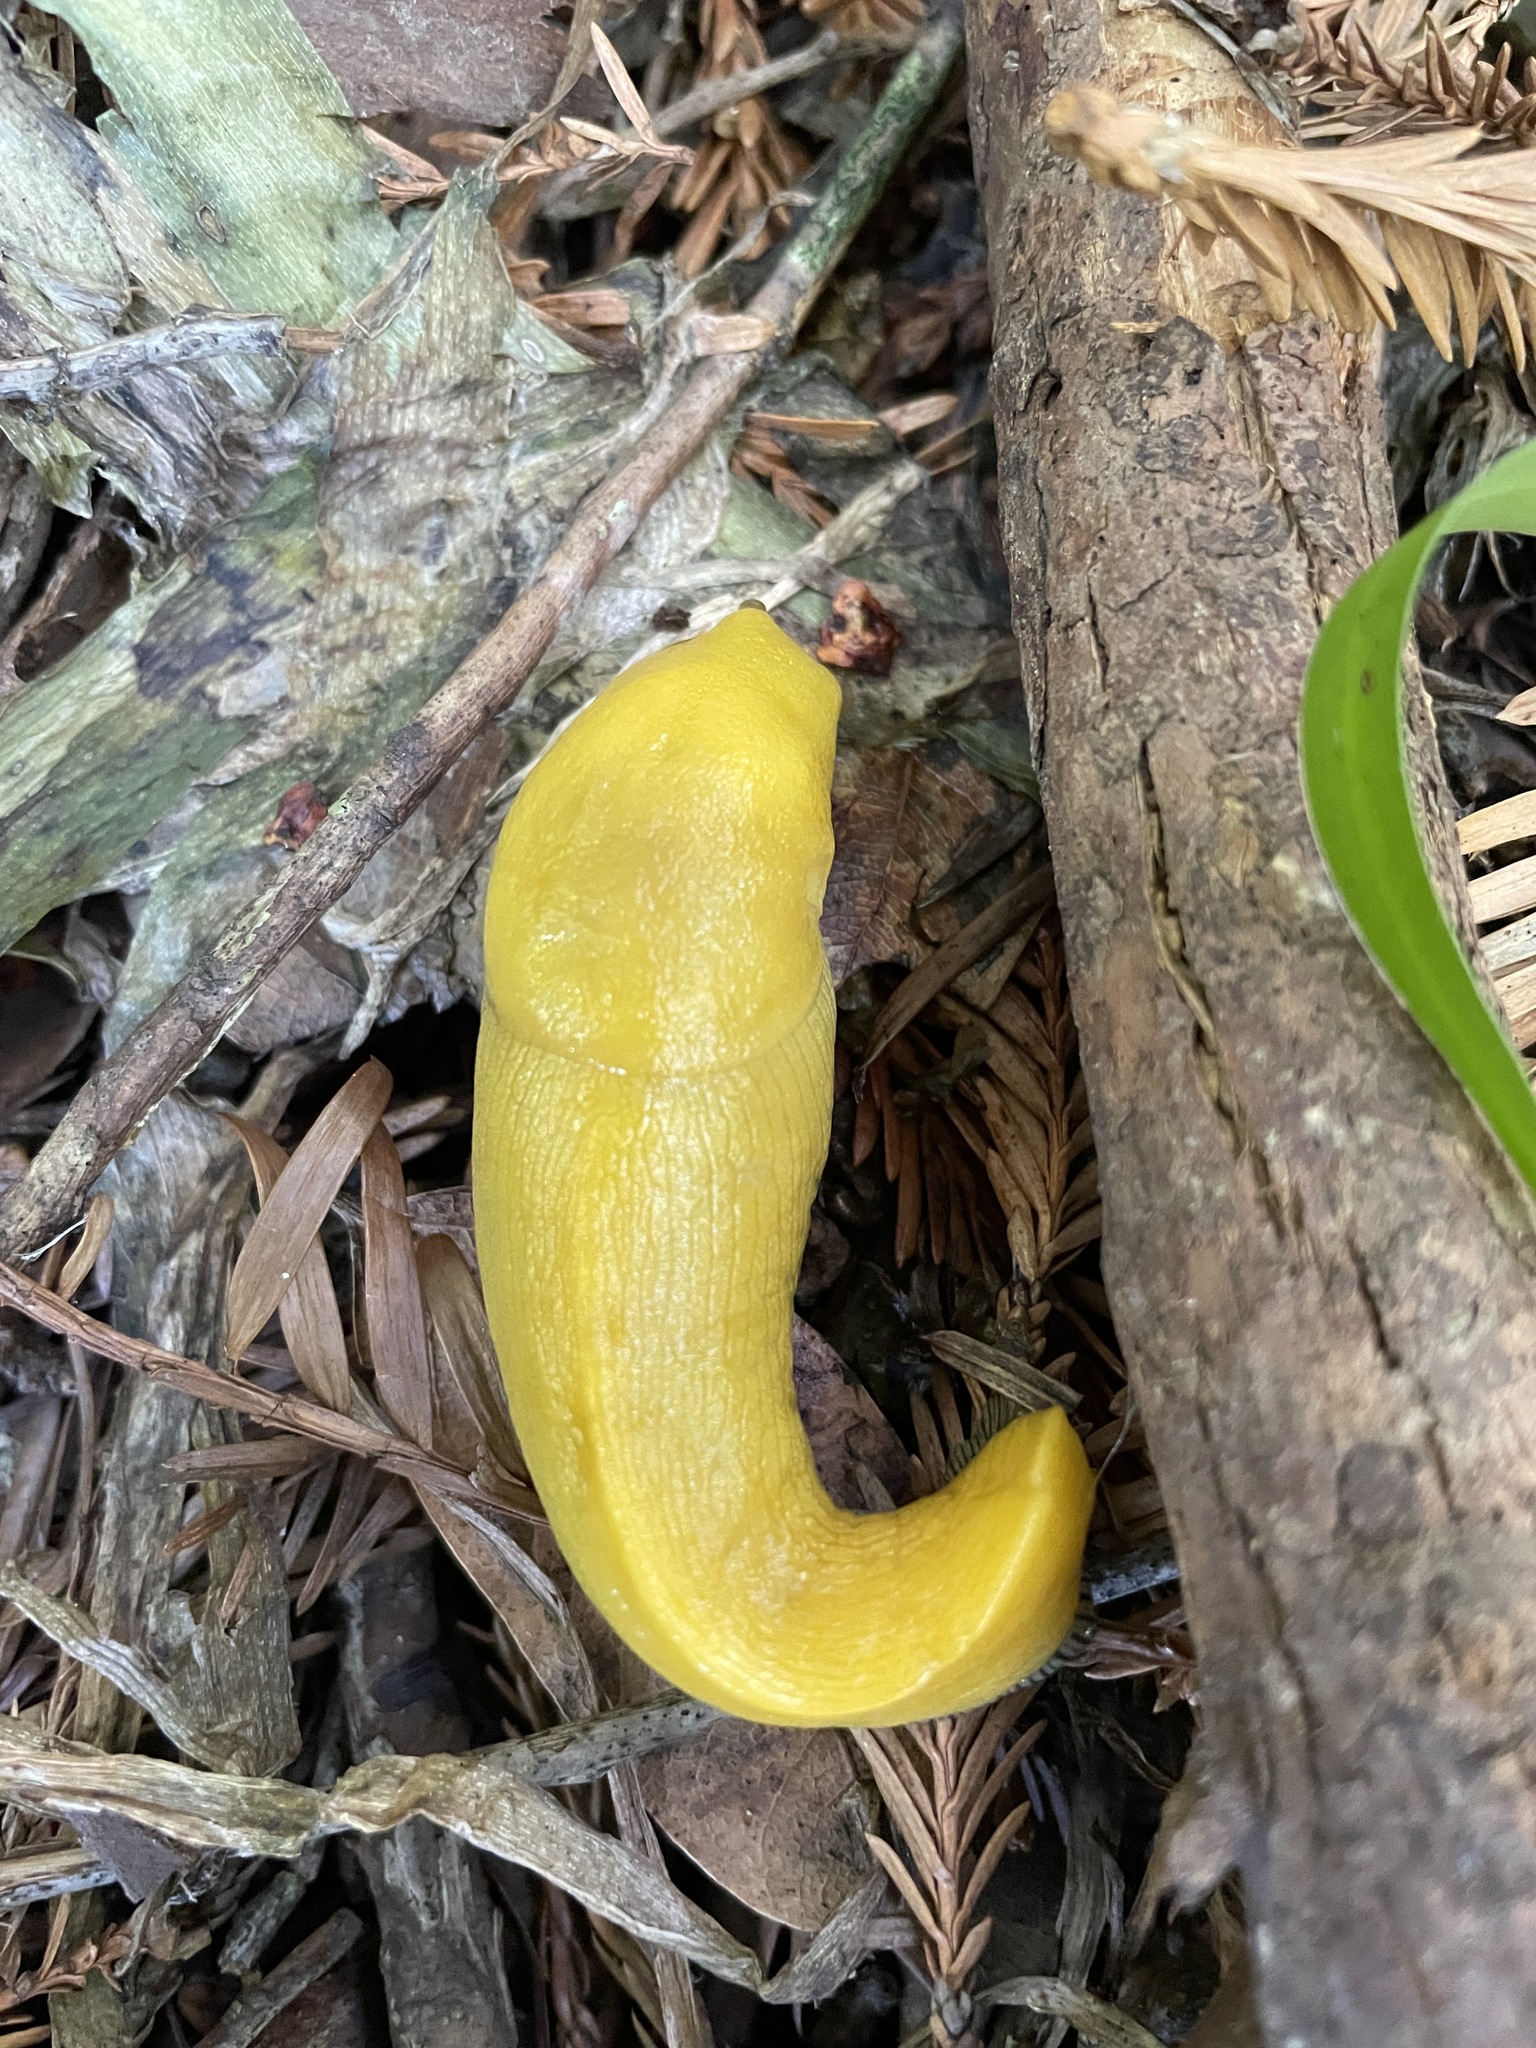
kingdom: Animalia
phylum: Mollusca
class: Gastropoda
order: Stylommatophora
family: Ariolimacidae
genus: Ariolimax
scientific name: Ariolimax dolichophallus
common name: Slender banana slug
